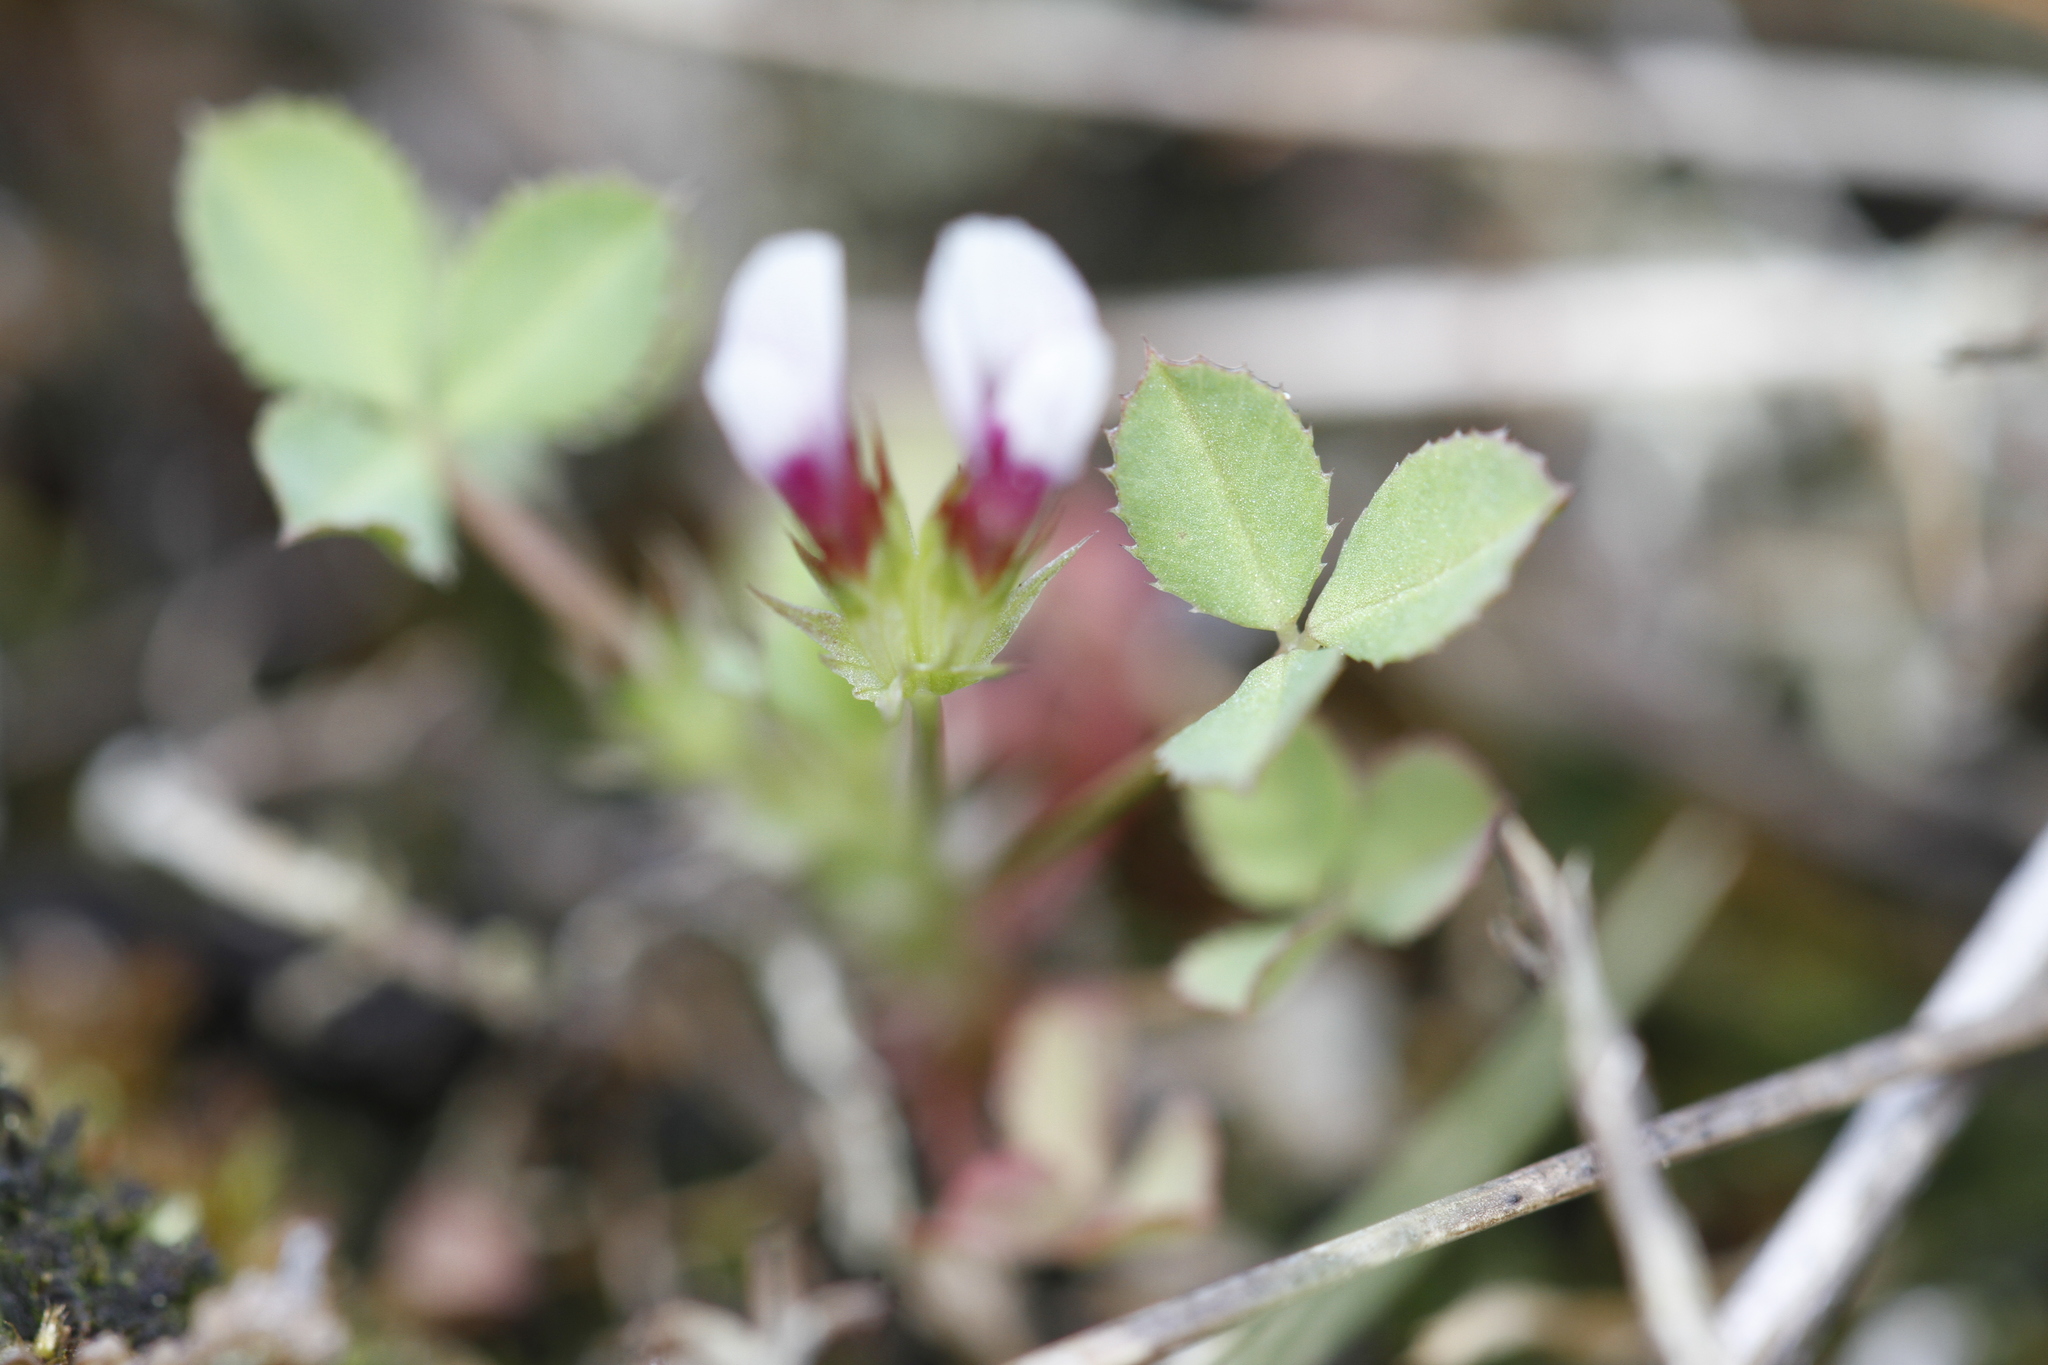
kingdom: Plantae
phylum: Tracheophyta
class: Magnoliopsida
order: Fabales
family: Fabaceae
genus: Trifolium
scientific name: Trifolium variegatum
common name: Whitetip clover
